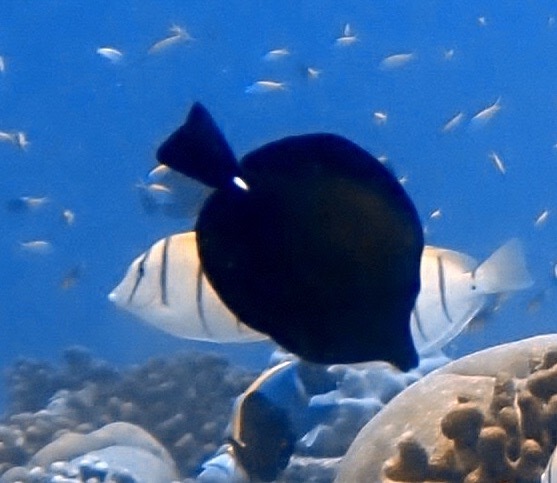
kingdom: Animalia
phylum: Chordata
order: Perciformes
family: Acanthuridae
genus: Zebrasoma
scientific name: Zebrasoma scopas
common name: Twotone tang
